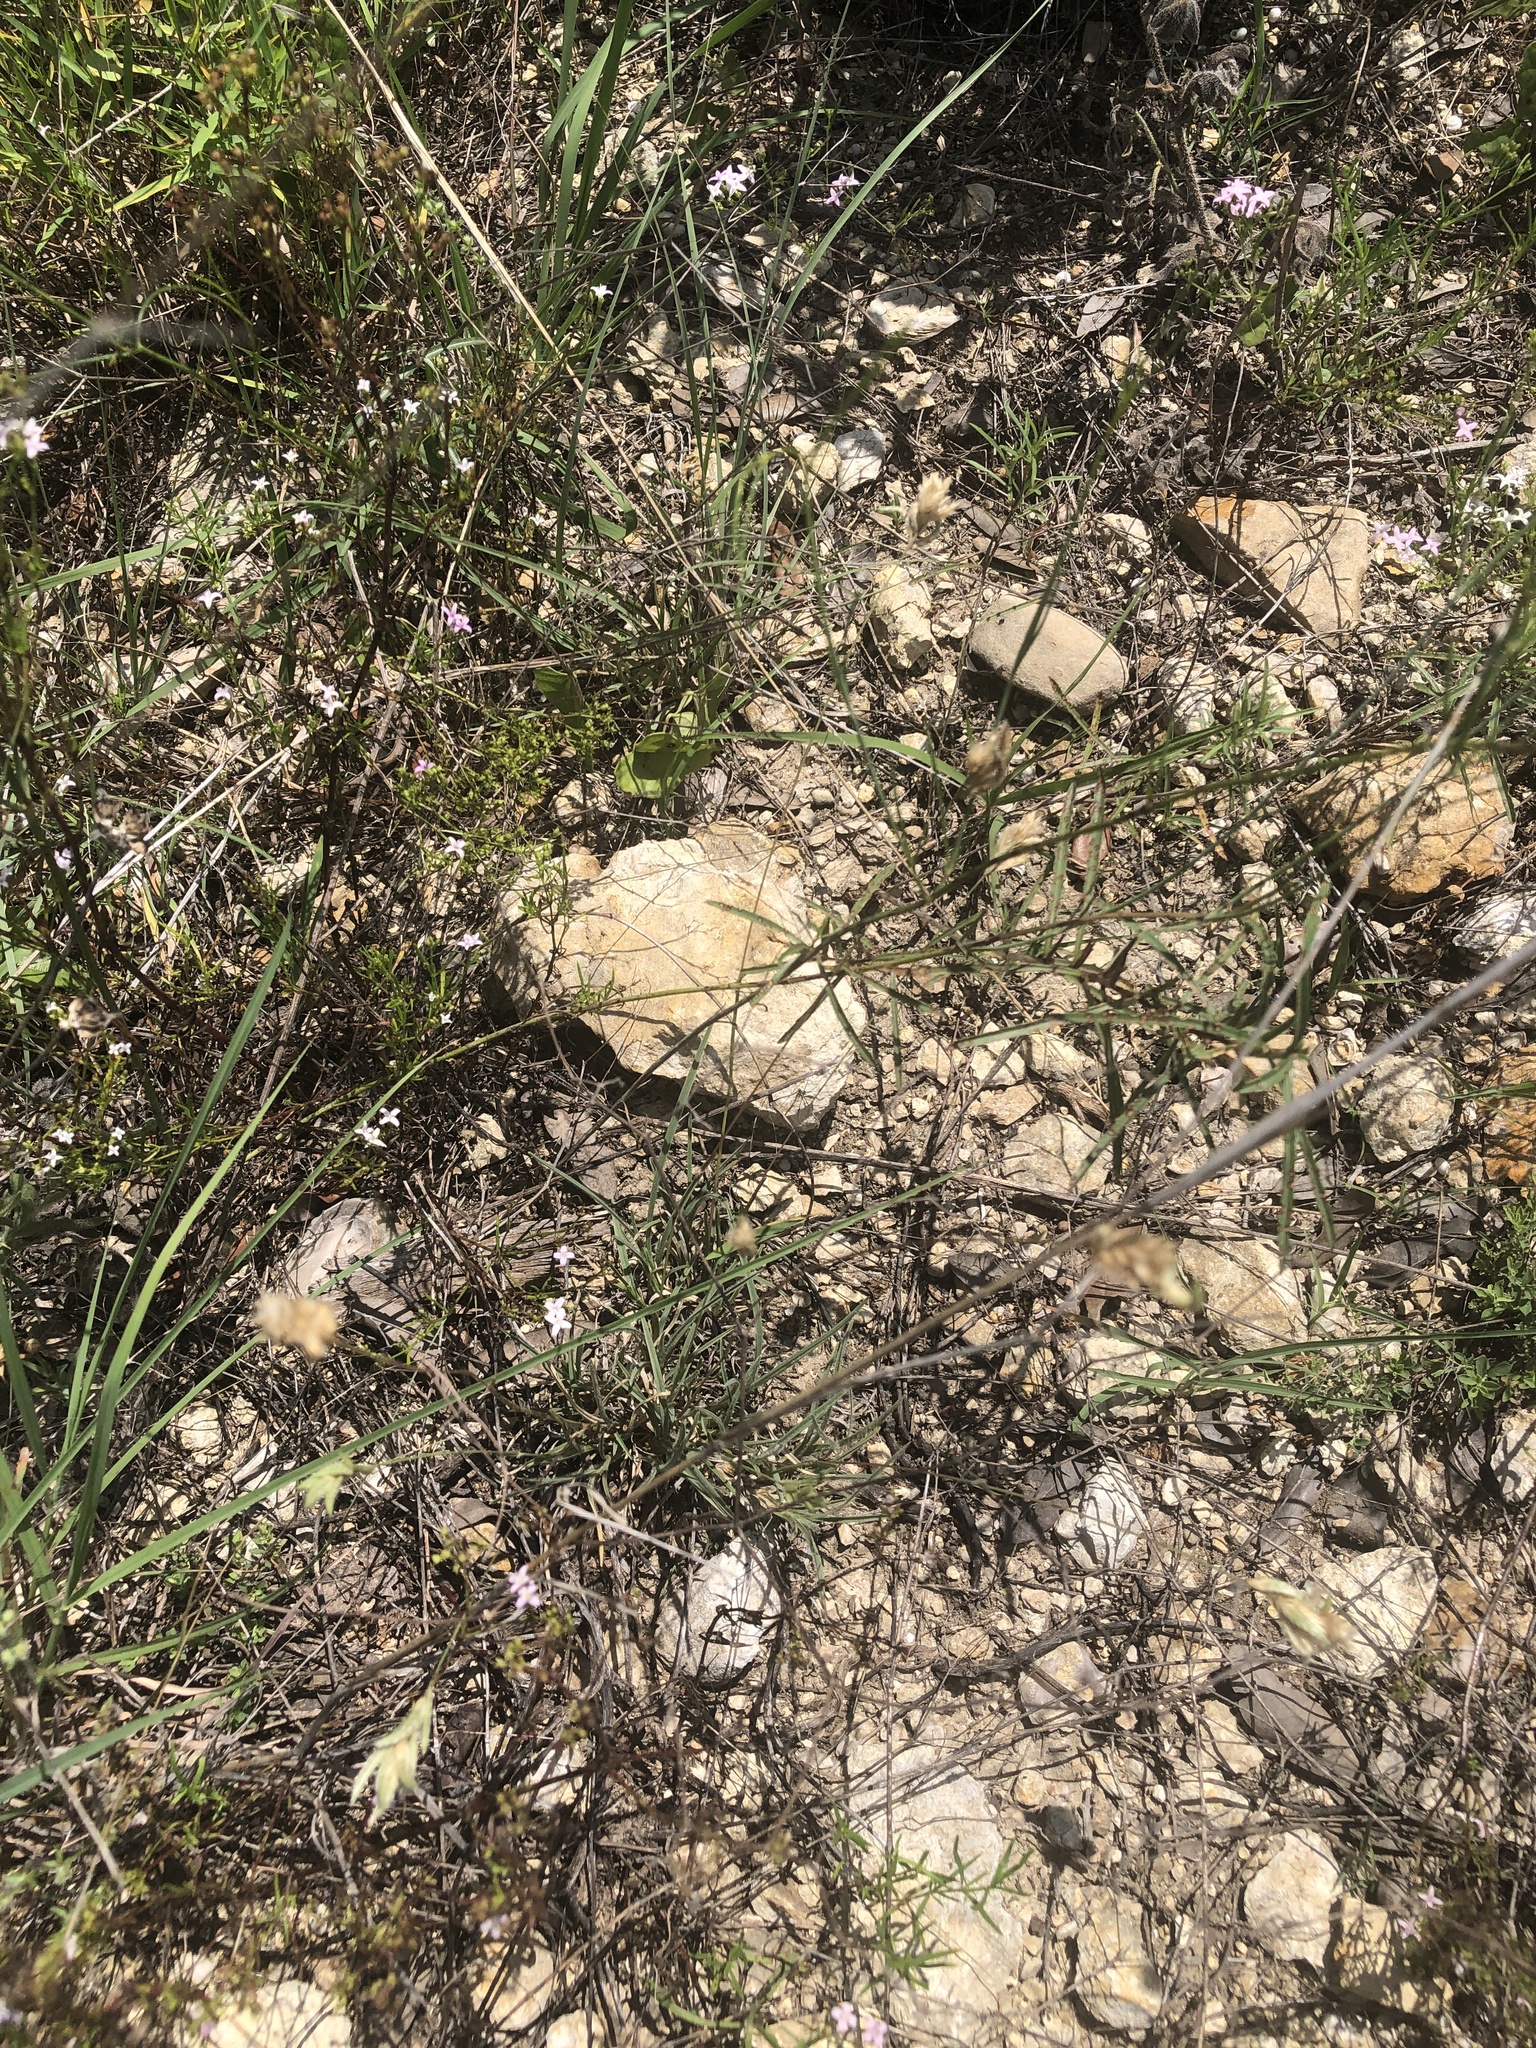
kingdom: Plantae
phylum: Tracheophyta
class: Liliopsida
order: Poales
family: Poaceae
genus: Erioneuron
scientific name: Erioneuron pilosum
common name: Hairy woolly grass
